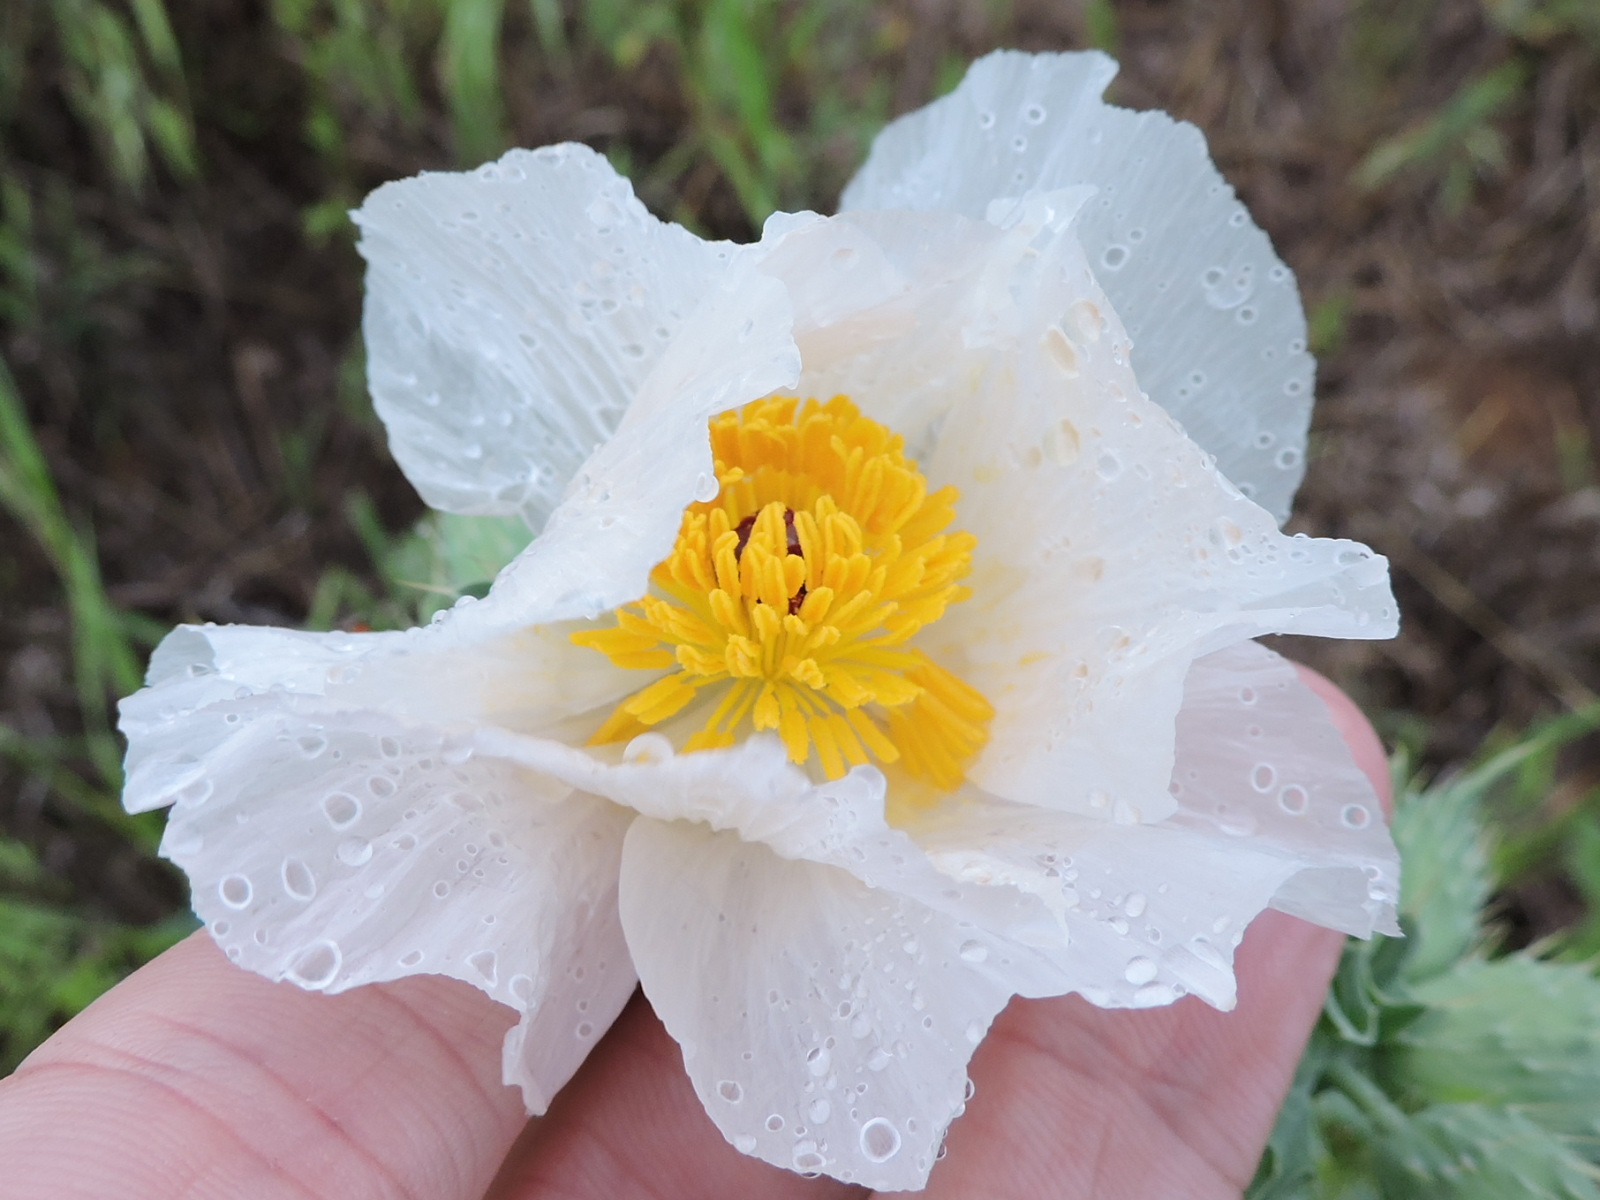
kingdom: Plantae
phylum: Tracheophyta
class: Magnoliopsida
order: Ranunculales
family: Papaveraceae
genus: Argemone
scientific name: Argemone albiflora
